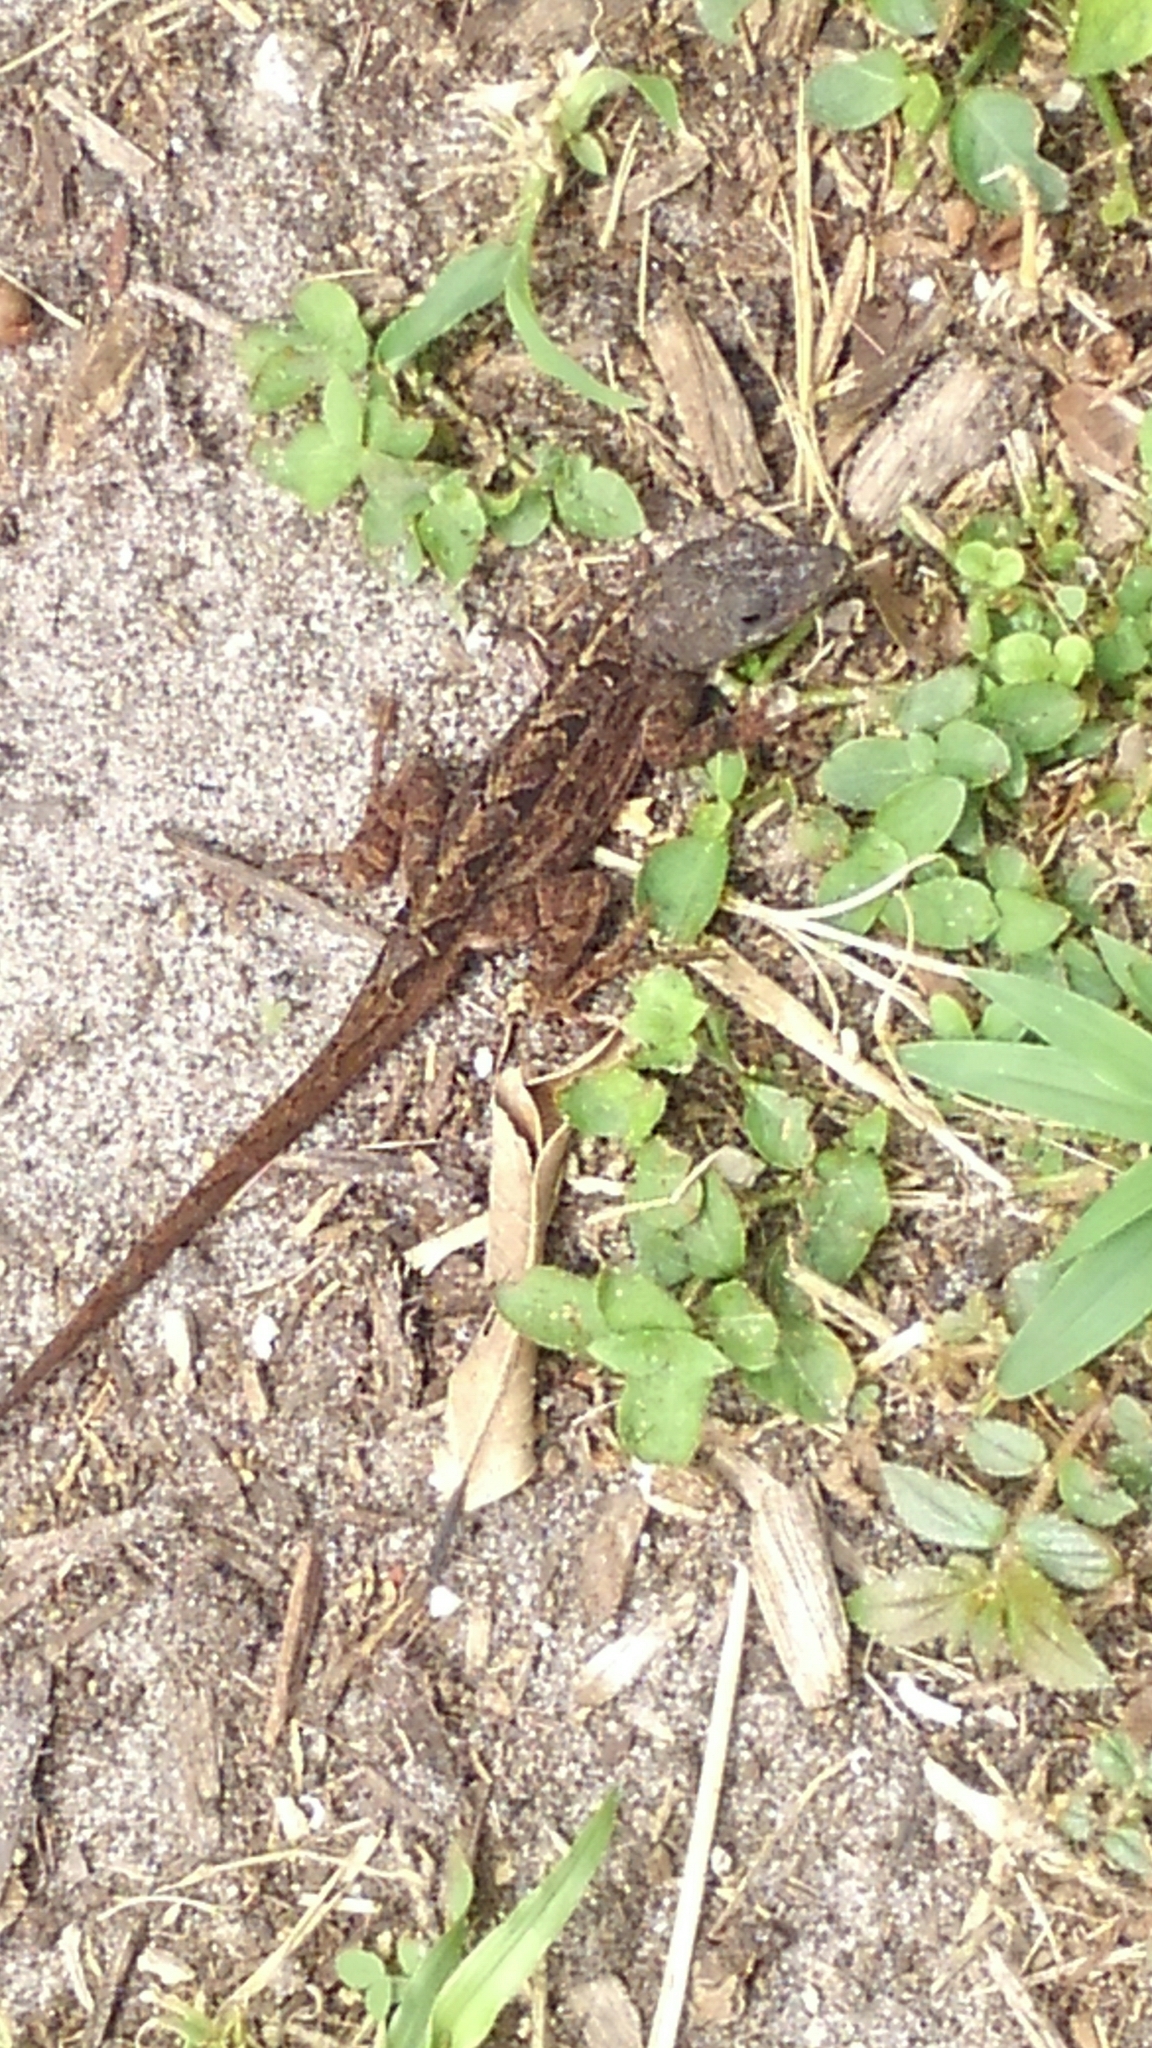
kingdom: Animalia
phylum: Chordata
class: Squamata
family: Dactyloidae
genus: Anolis
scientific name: Anolis sagrei
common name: Brown anole
